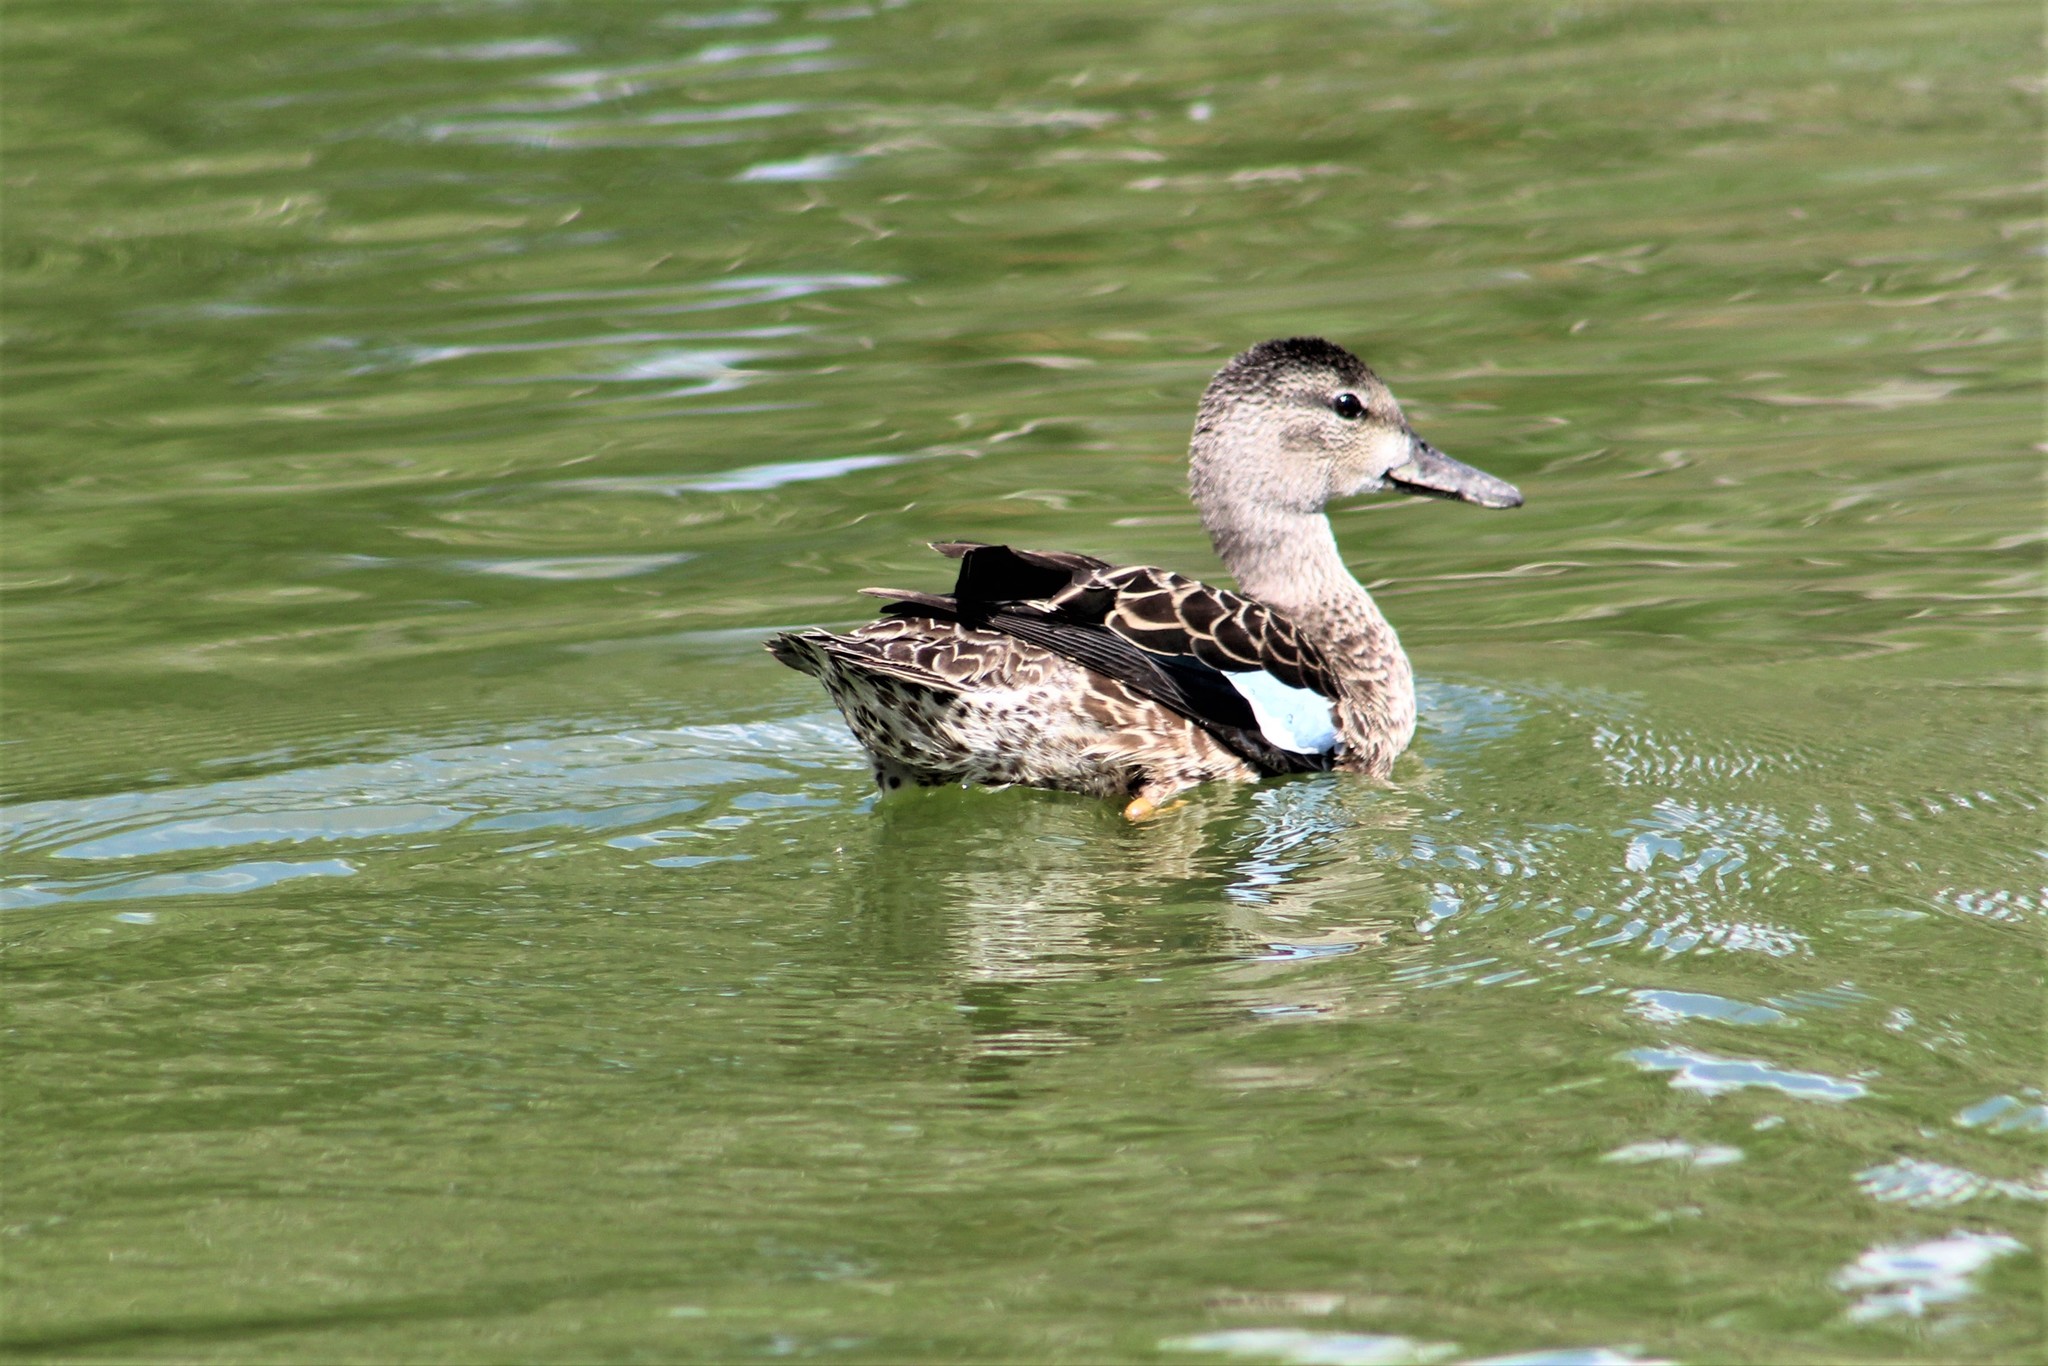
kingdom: Animalia
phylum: Chordata
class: Aves
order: Anseriformes
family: Anatidae
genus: Spatula
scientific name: Spatula discors
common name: Blue-winged teal
